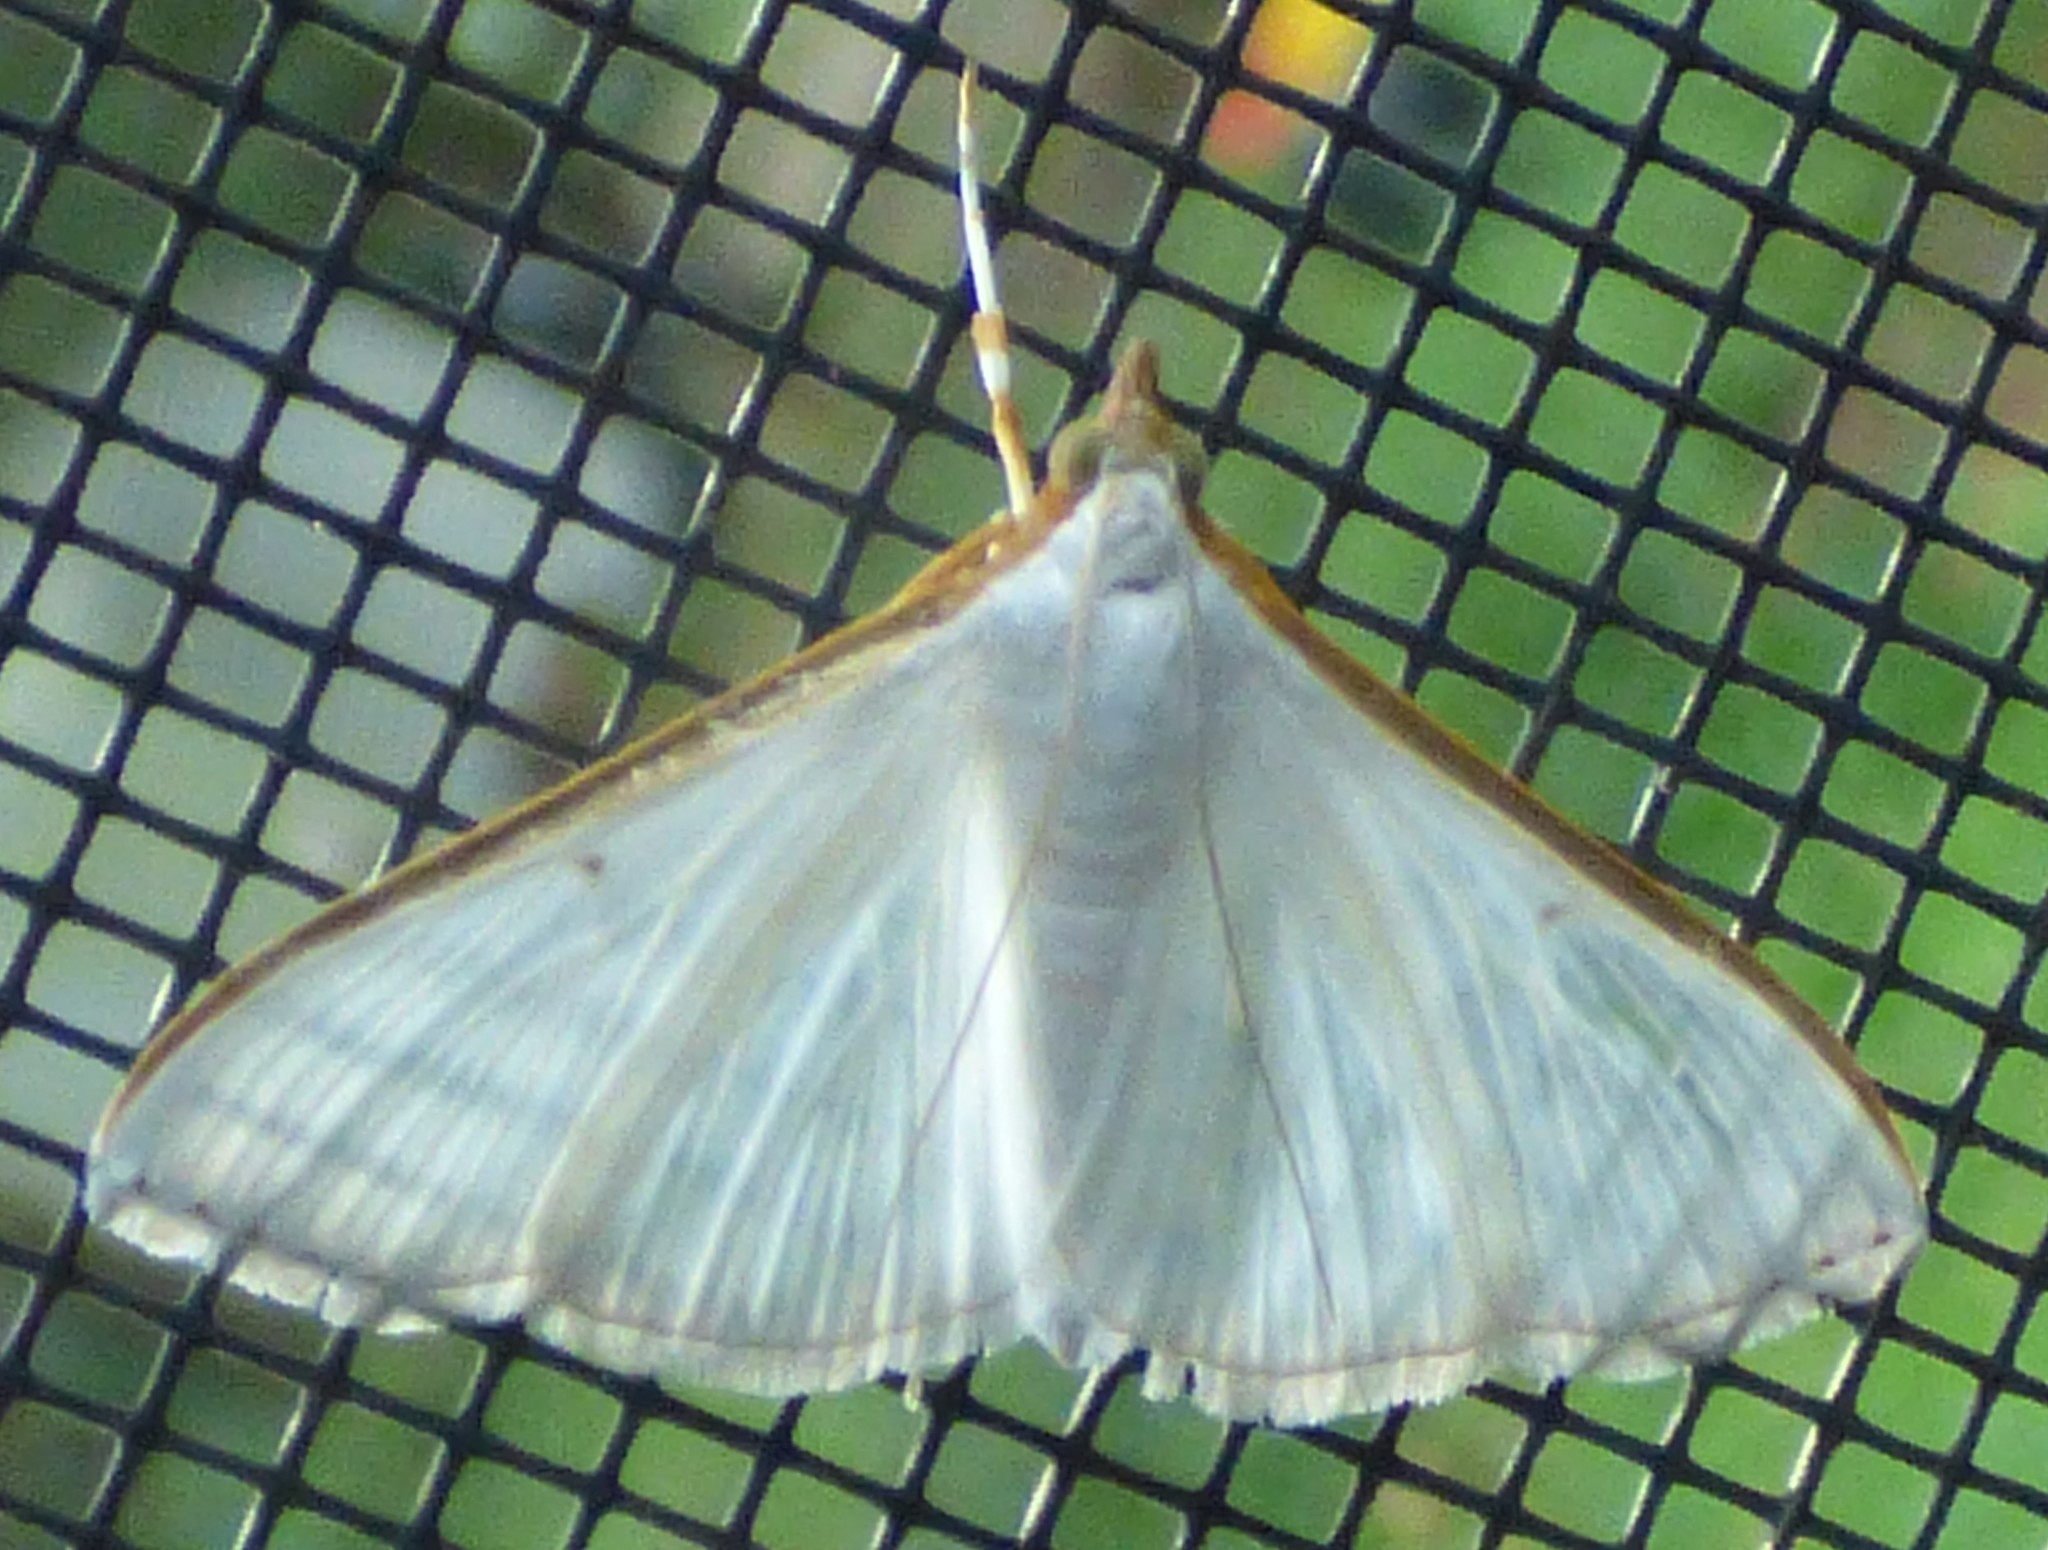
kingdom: Animalia
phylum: Arthropoda
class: Insecta
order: Lepidoptera
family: Crambidae
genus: Diaphania
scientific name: Diaphania costata
